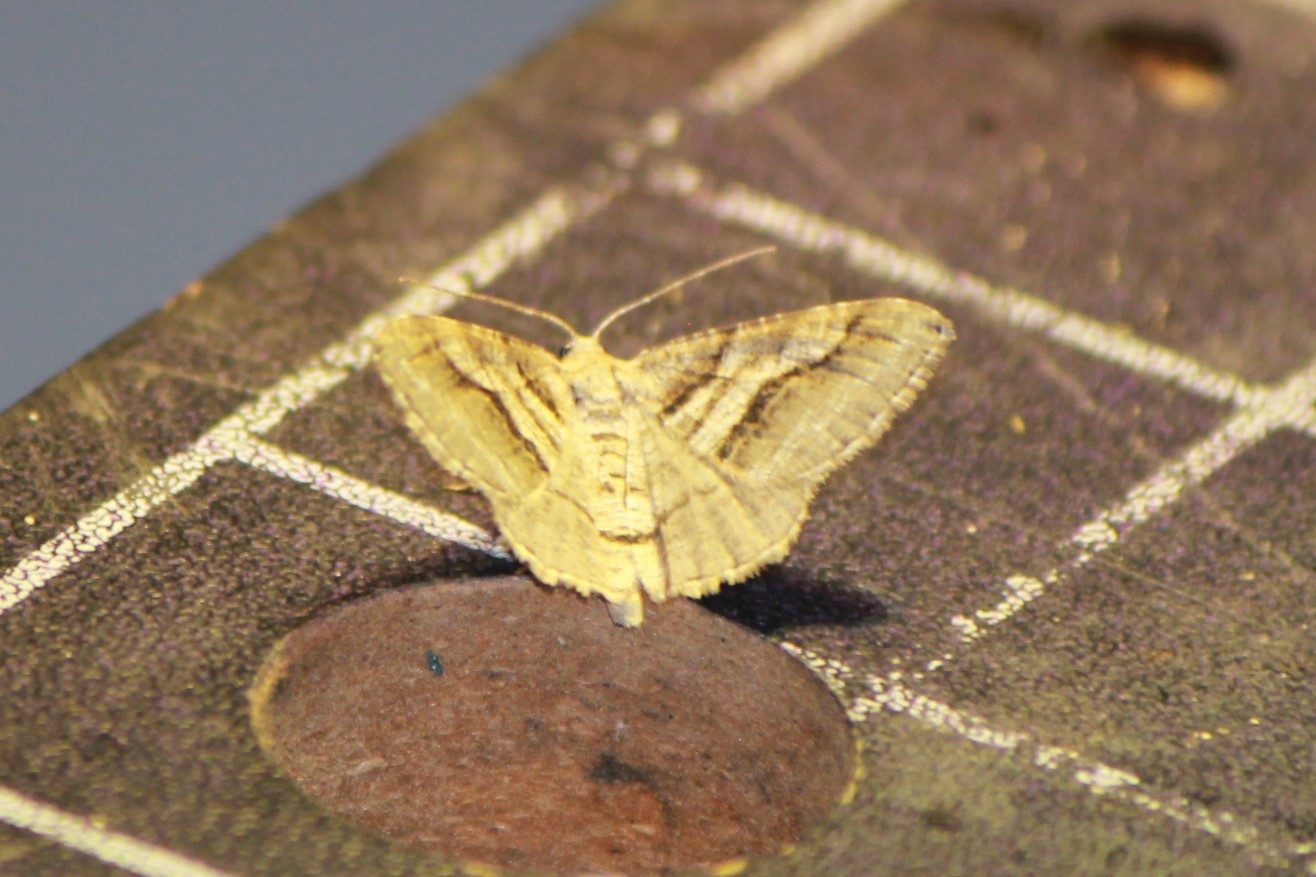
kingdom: Animalia
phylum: Arthropoda
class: Insecta
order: Lepidoptera
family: Geometridae
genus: Digrammia
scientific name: Digrammia continuata
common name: Curve-lined angle
